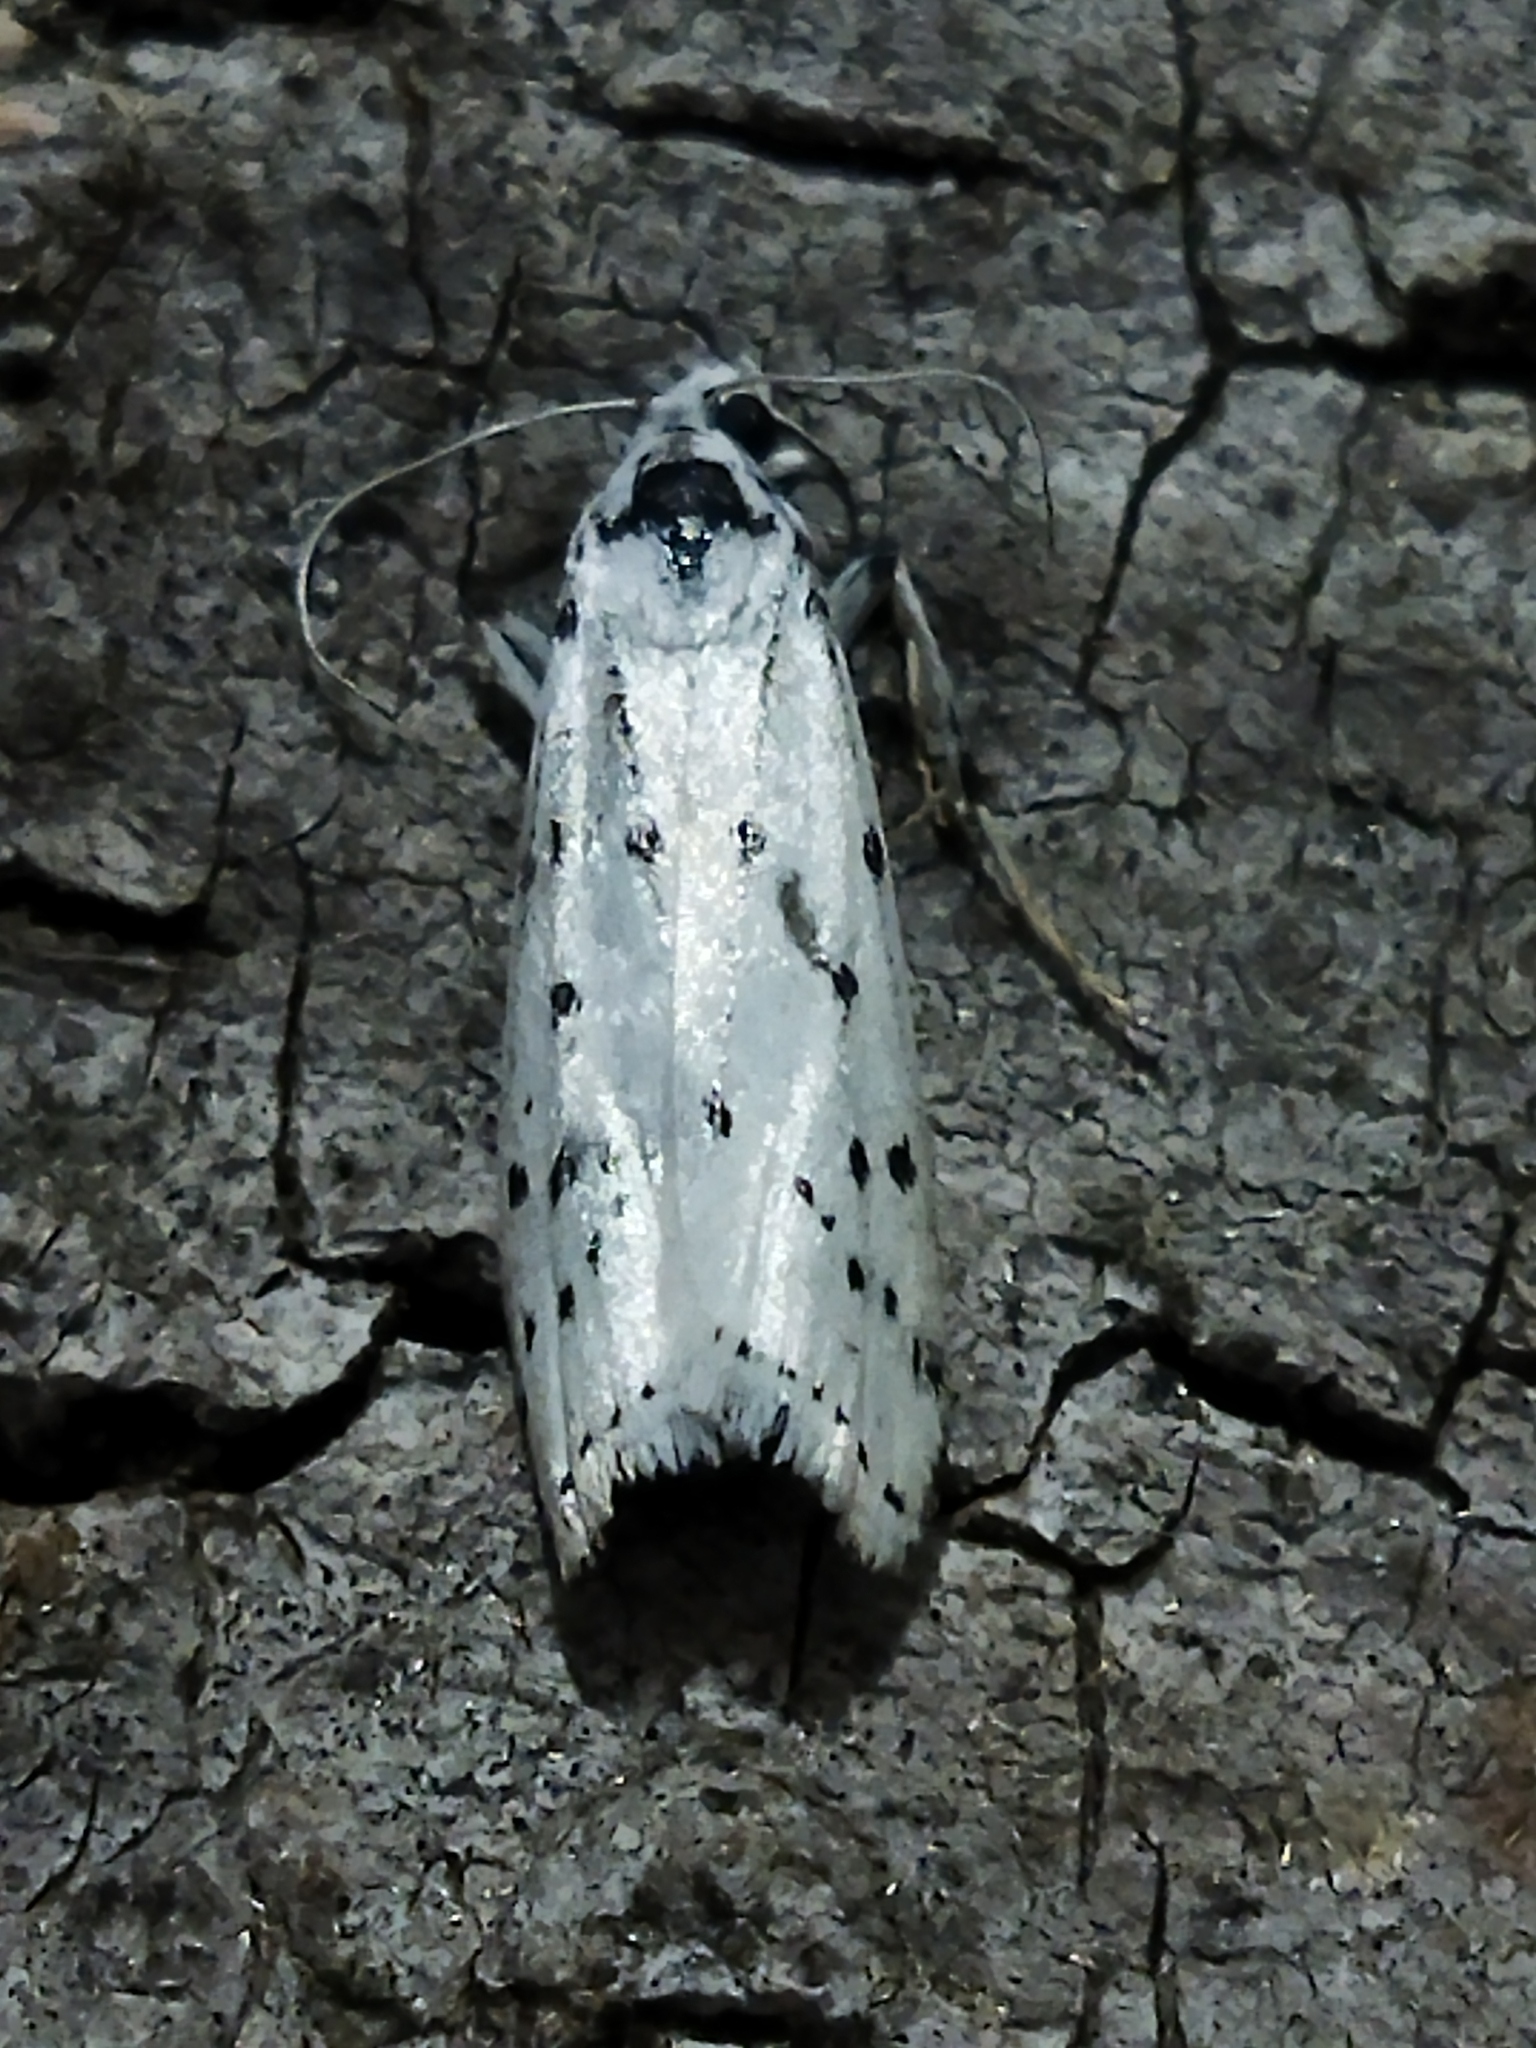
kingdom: Animalia
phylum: Arthropoda
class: Insecta
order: Lepidoptera
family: Pyralidae
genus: Myelois
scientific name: Myelois circumvoluta
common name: Thistle ermine
